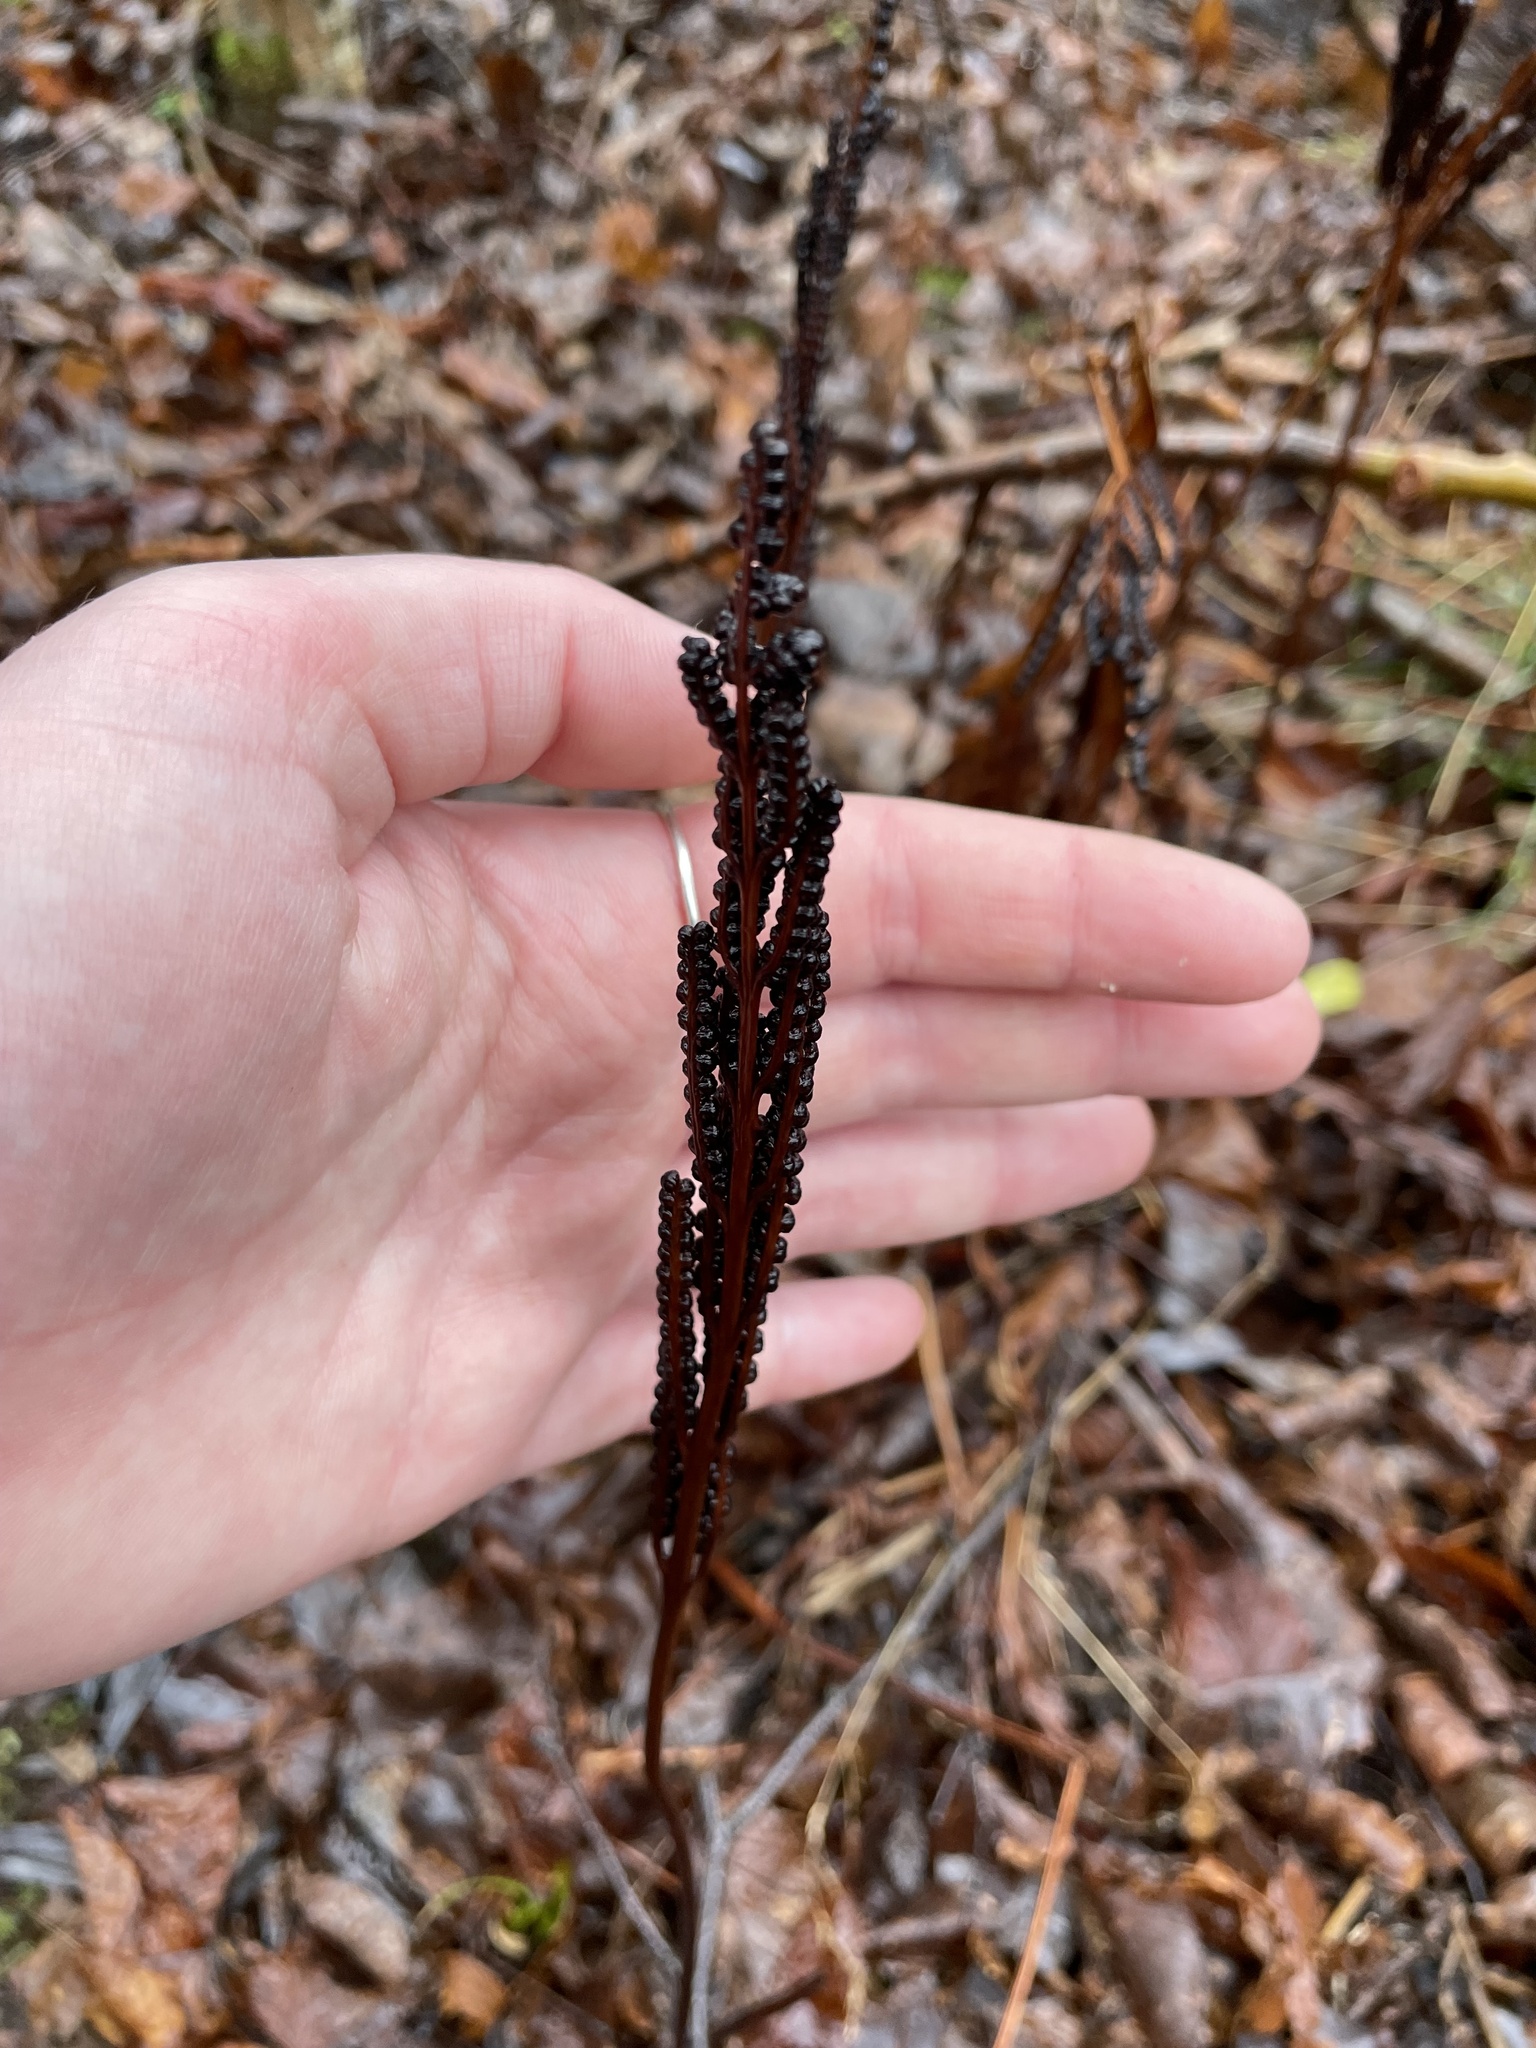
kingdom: Plantae
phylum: Tracheophyta
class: Polypodiopsida
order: Polypodiales
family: Onocleaceae
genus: Onoclea
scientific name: Onoclea sensibilis
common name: Sensitive fern
